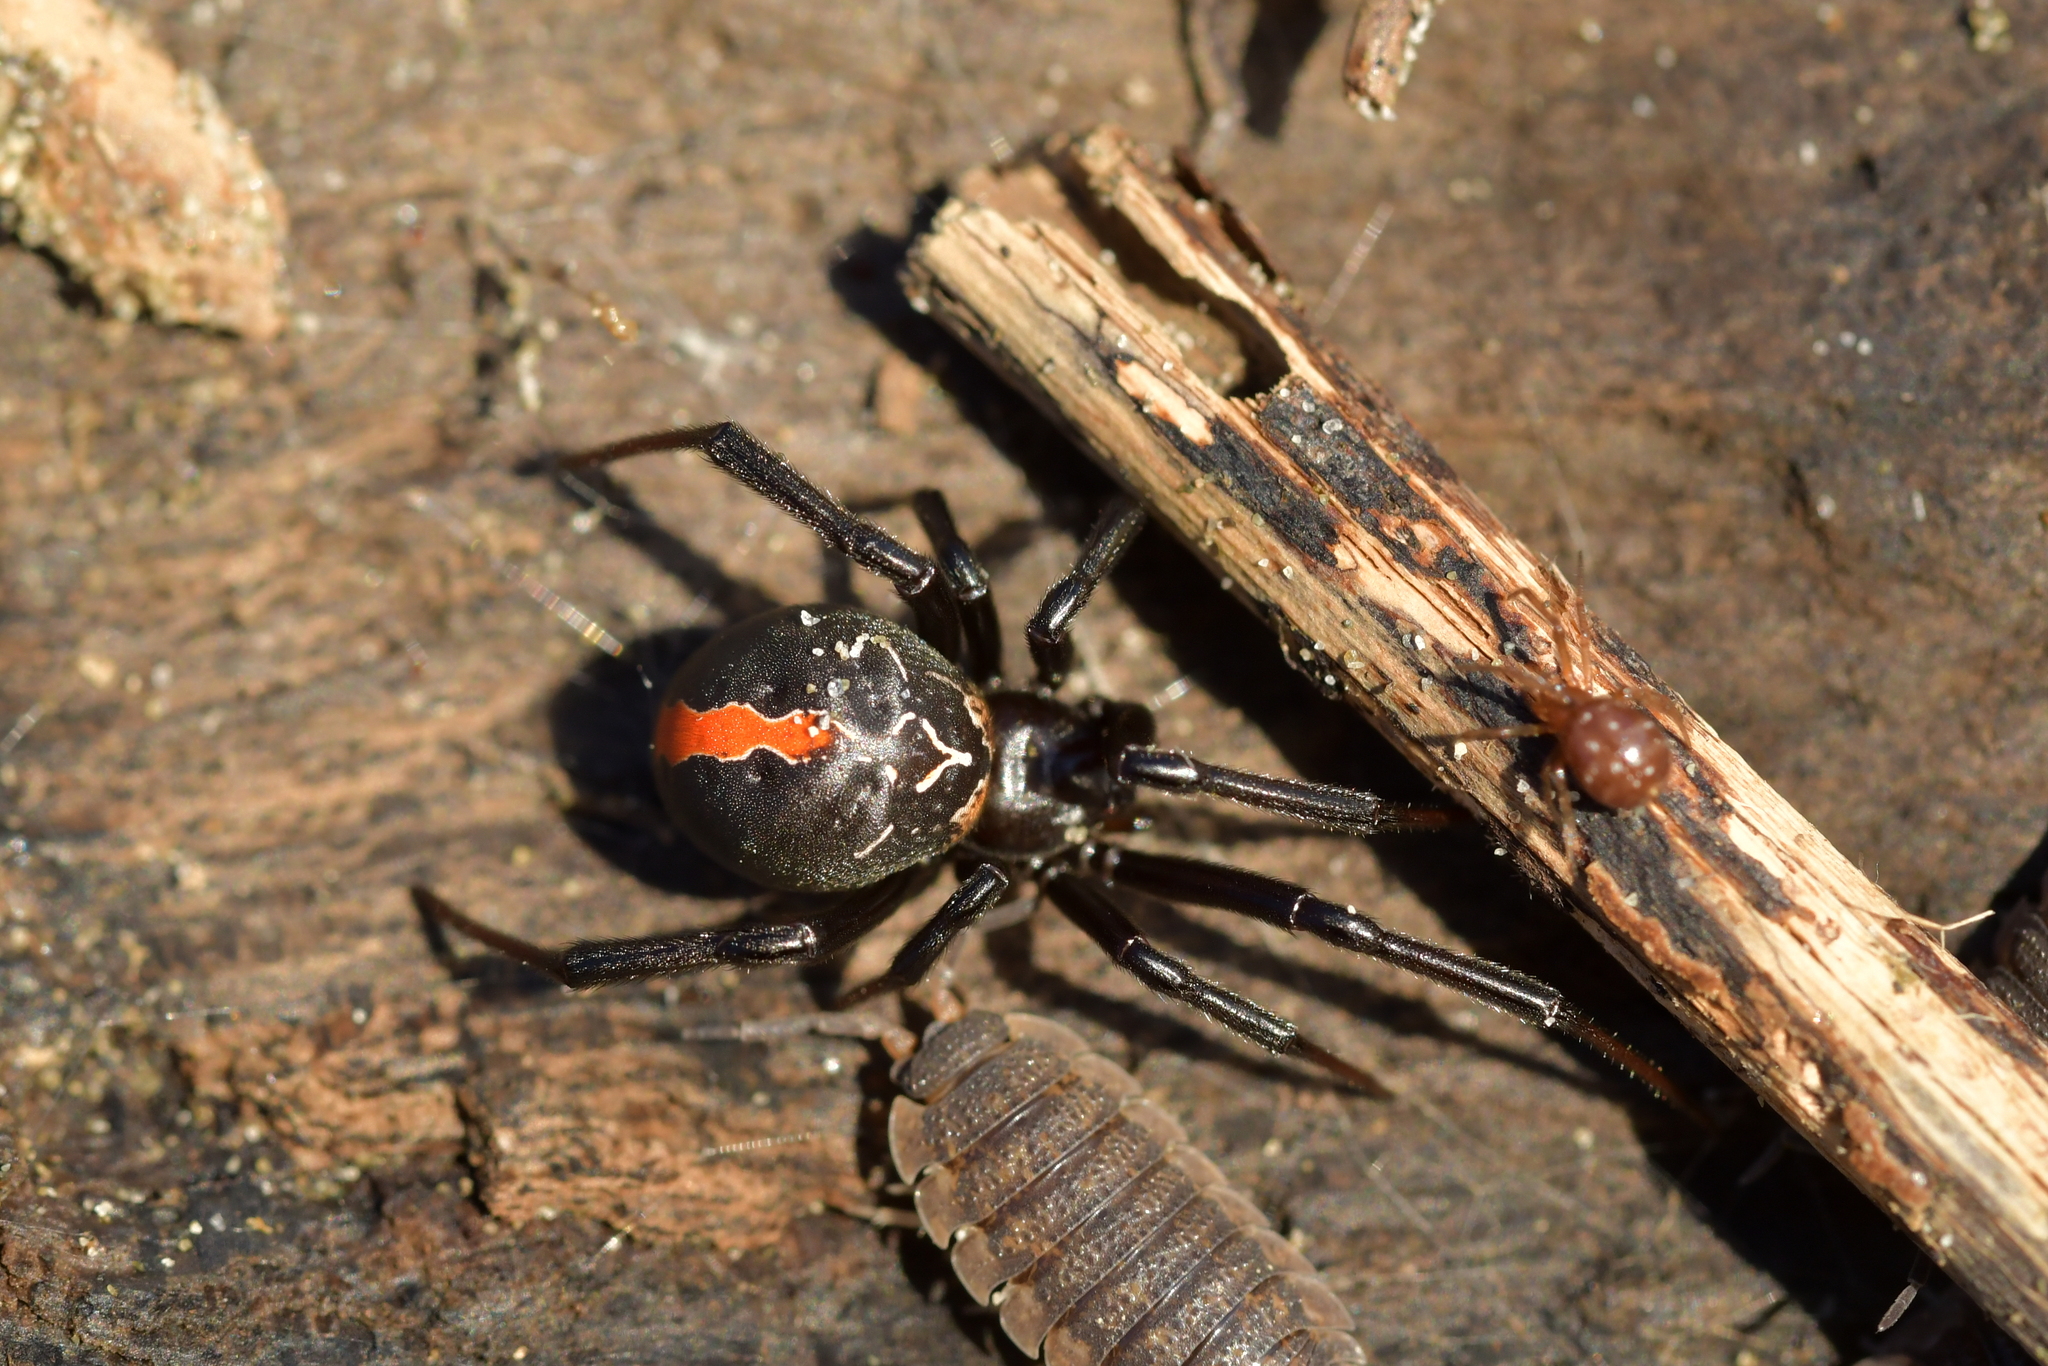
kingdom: Animalia
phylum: Arthropoda
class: Arachnida
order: Araneae
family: Theridiidae
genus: Latrodectus
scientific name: Latrodectus katipo
